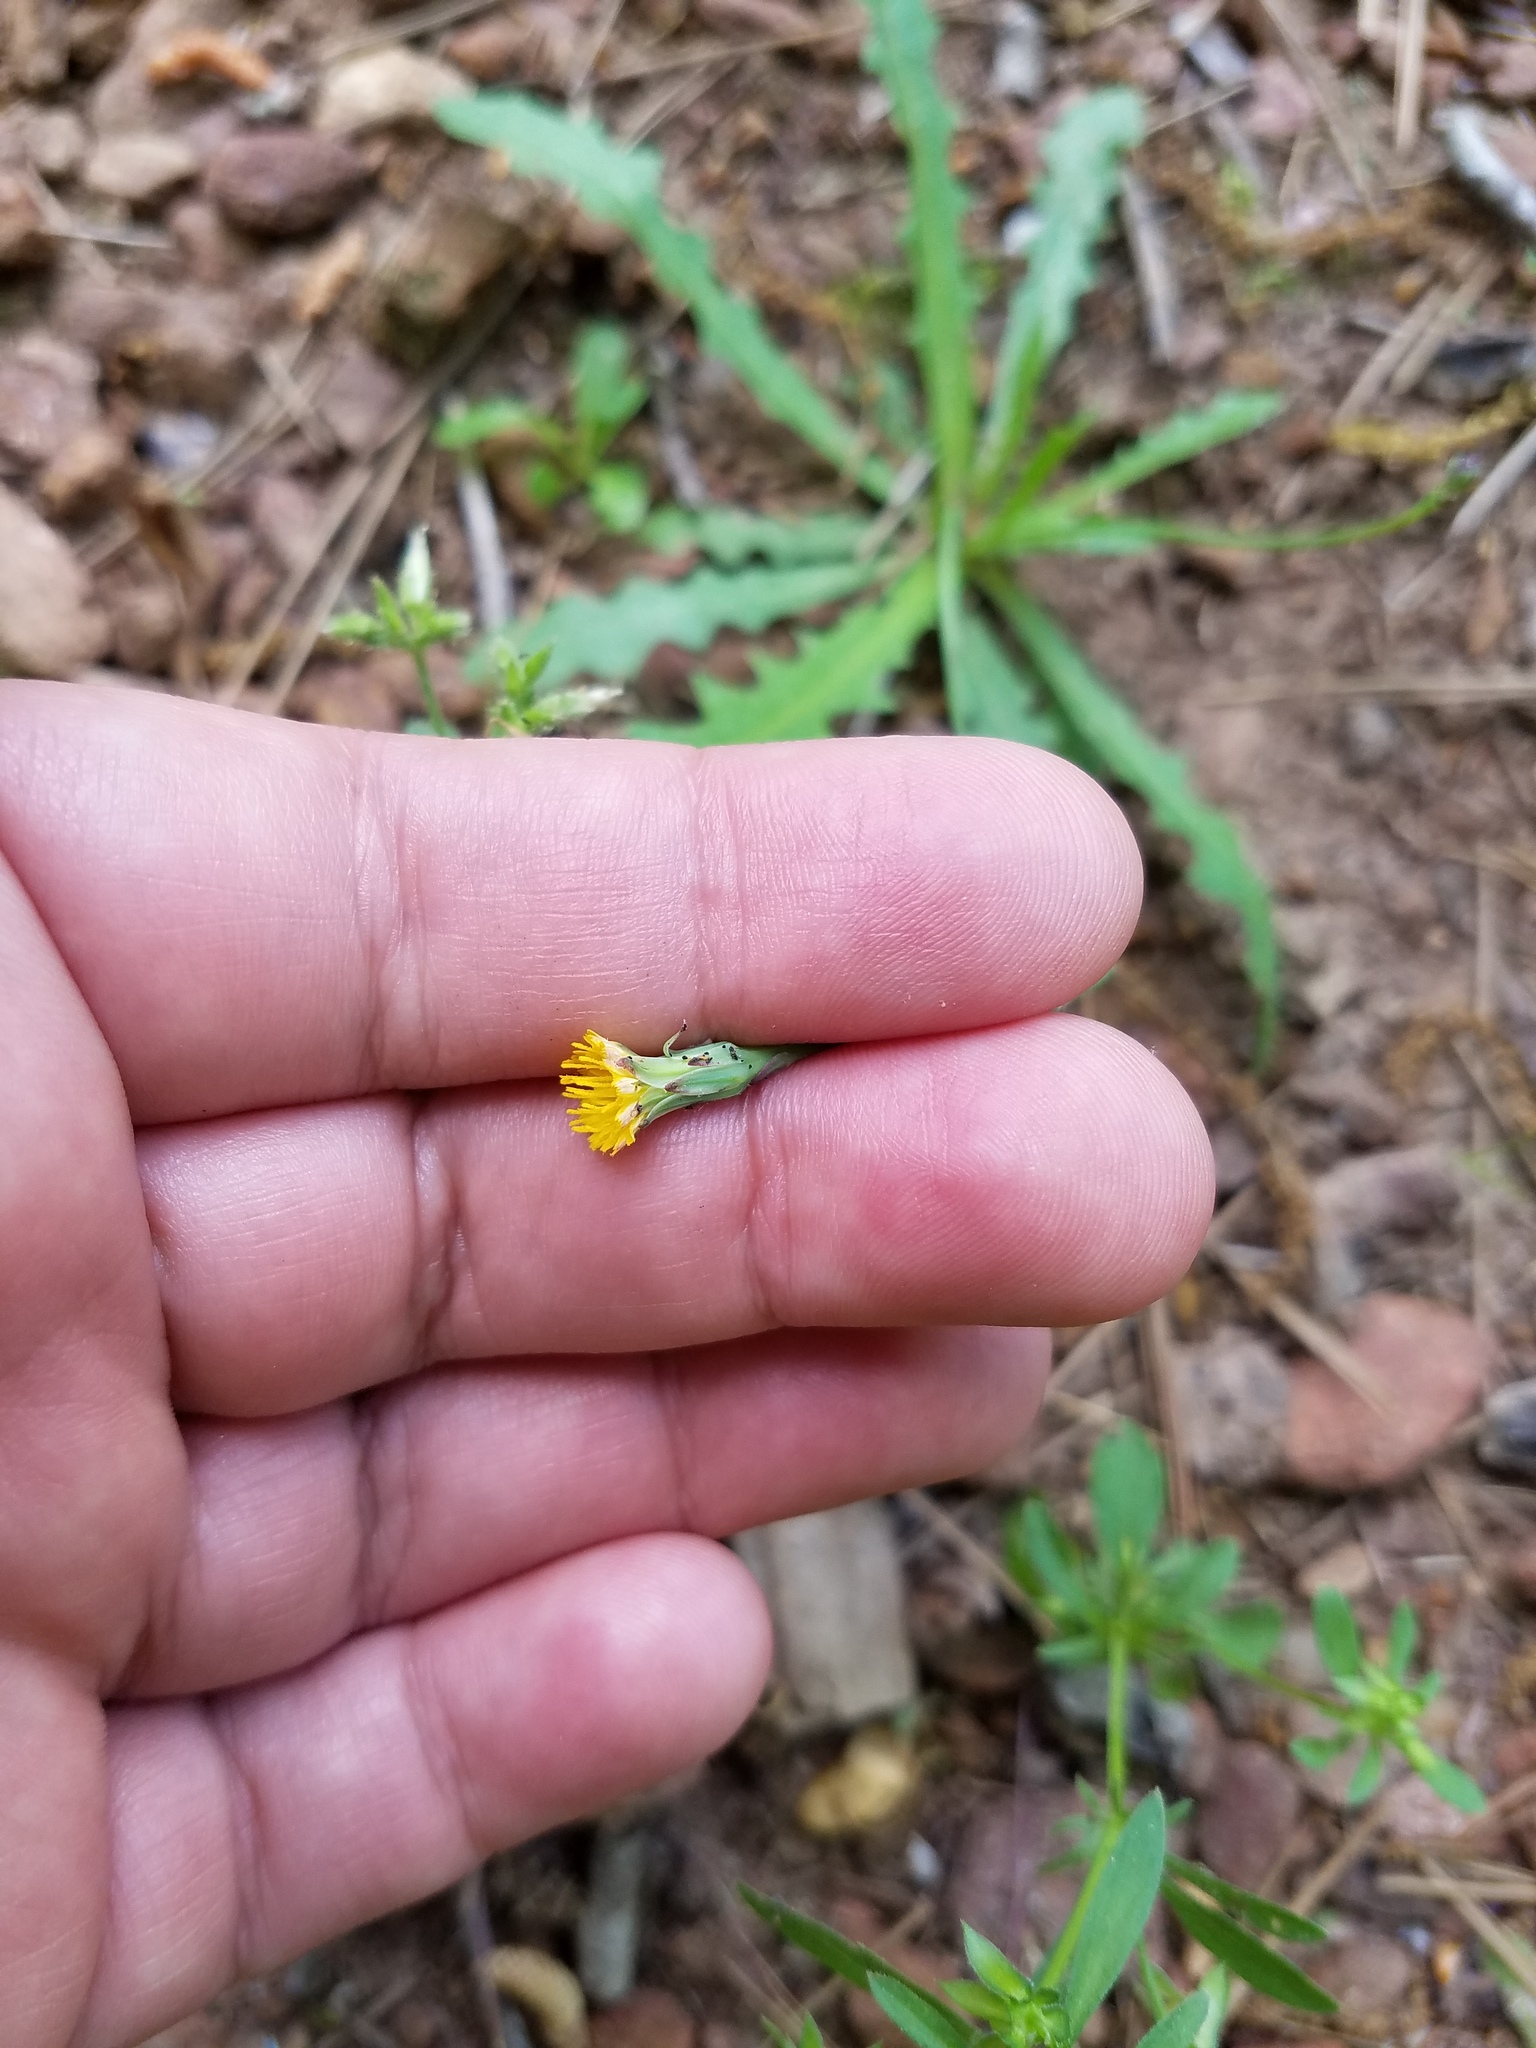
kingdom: Plantae
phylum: Tracheophyta
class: Magnoliopsida
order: Asterales
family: Asteraceae
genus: Hypochaeris
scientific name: Hypochaeris glabra
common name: Smooth catsear
